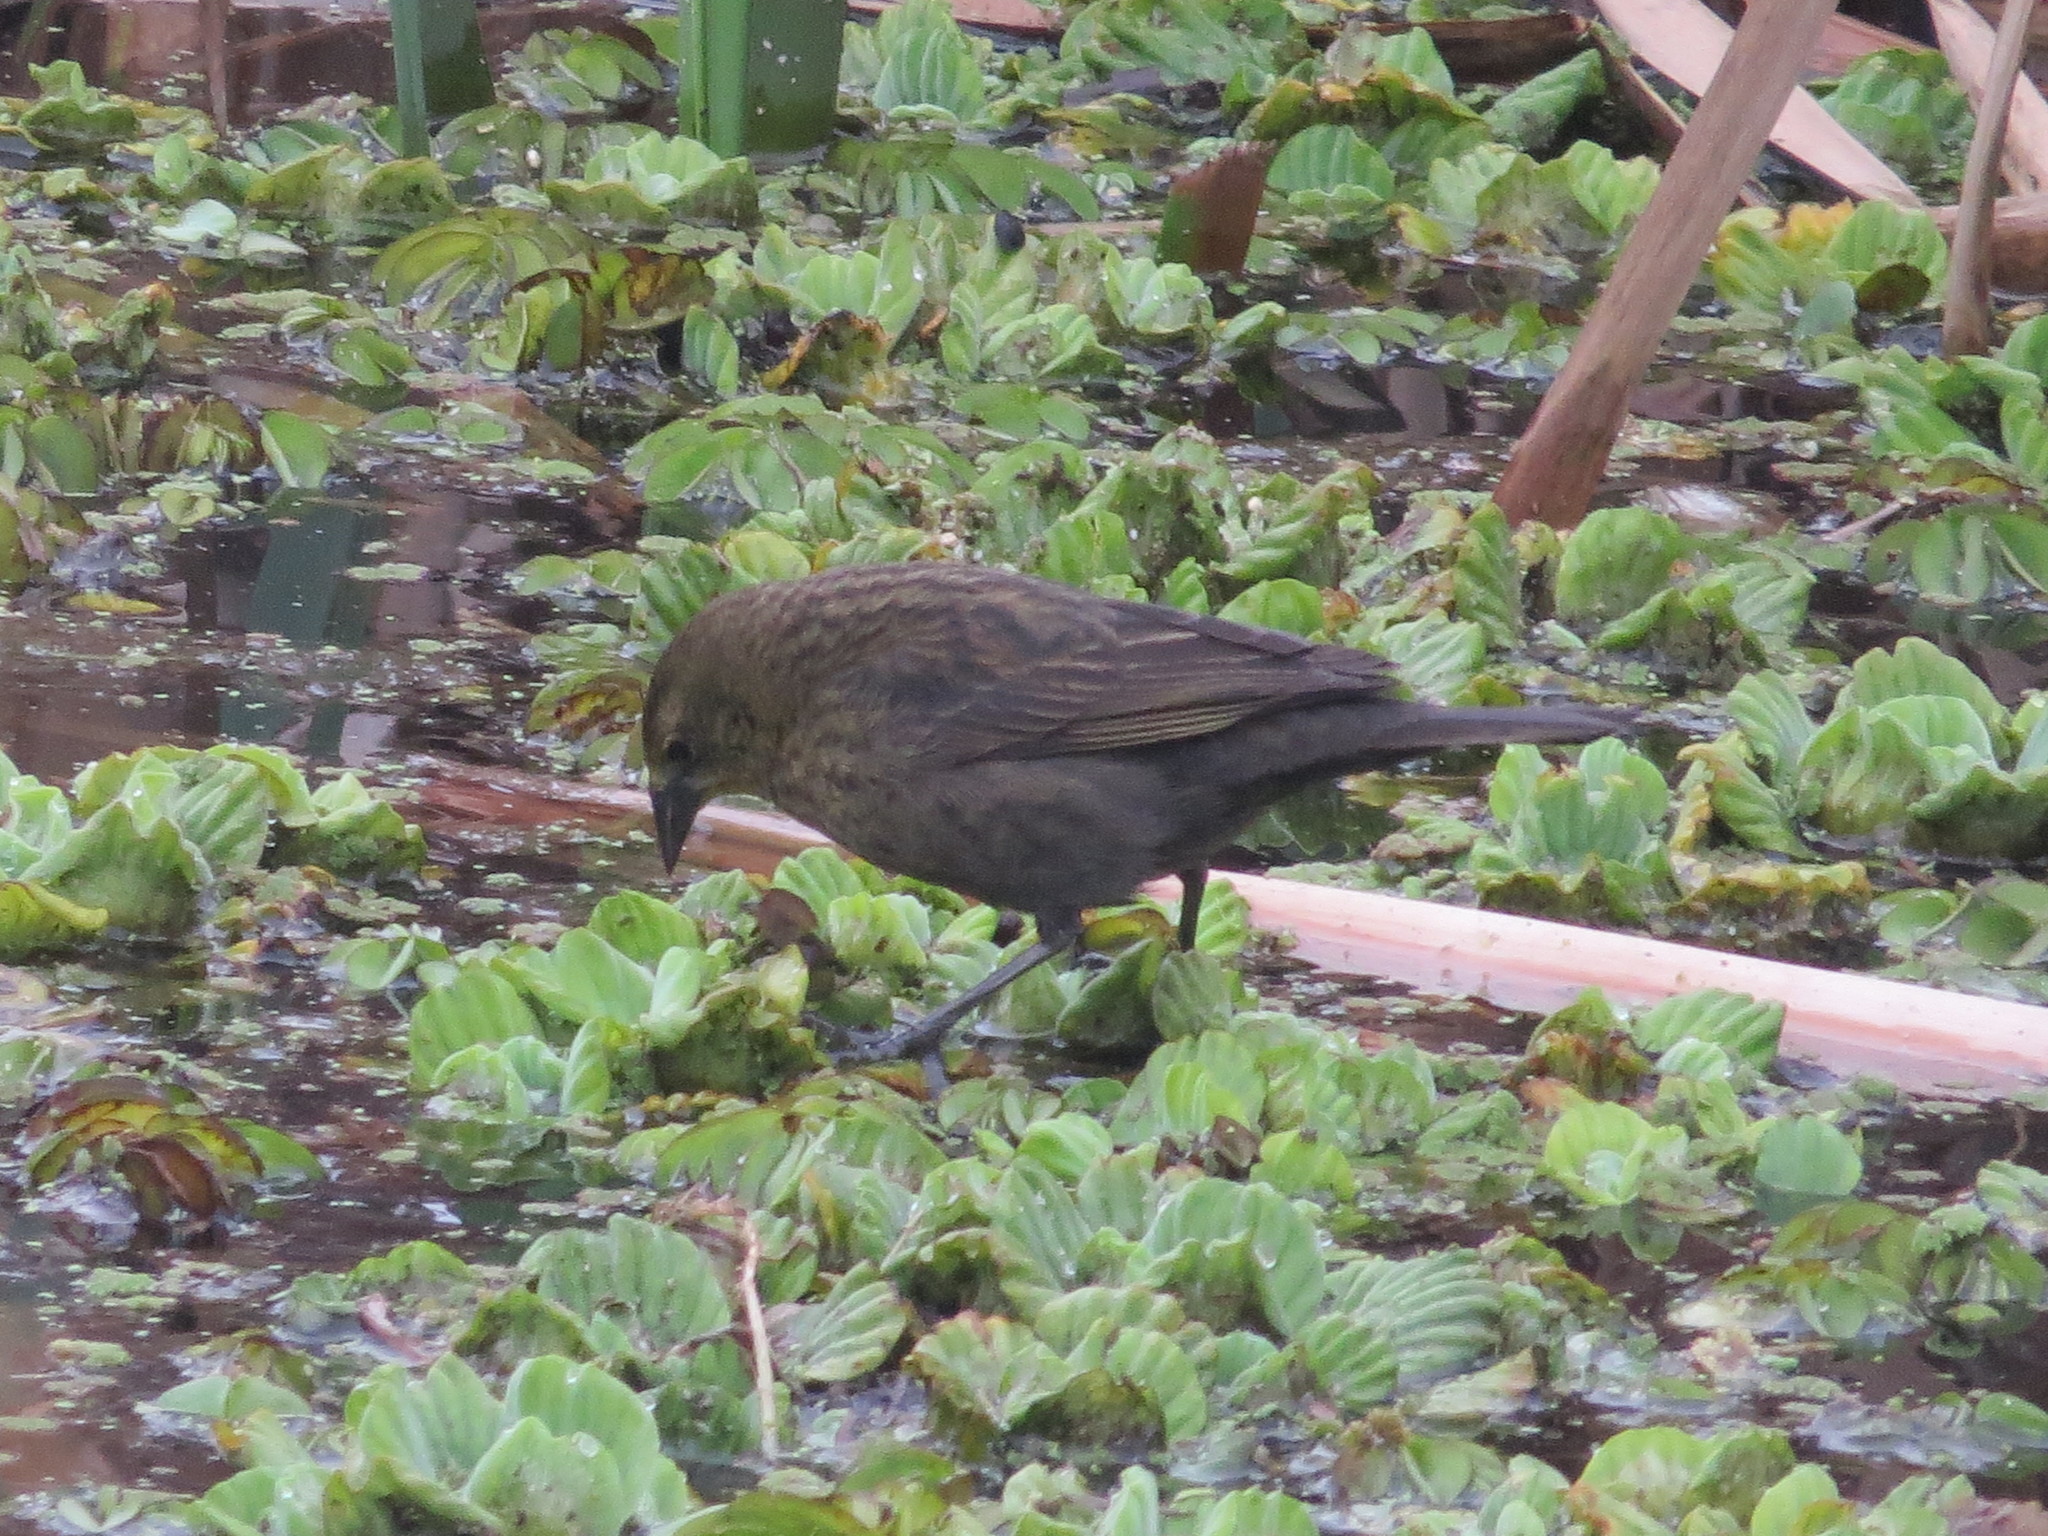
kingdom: Animalia
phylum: Chordata
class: Aves
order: Passeriformes
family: Icteridae
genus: Chrysomus
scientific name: Chrysomus ruficapillus
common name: Chestnut-capped blackbird
